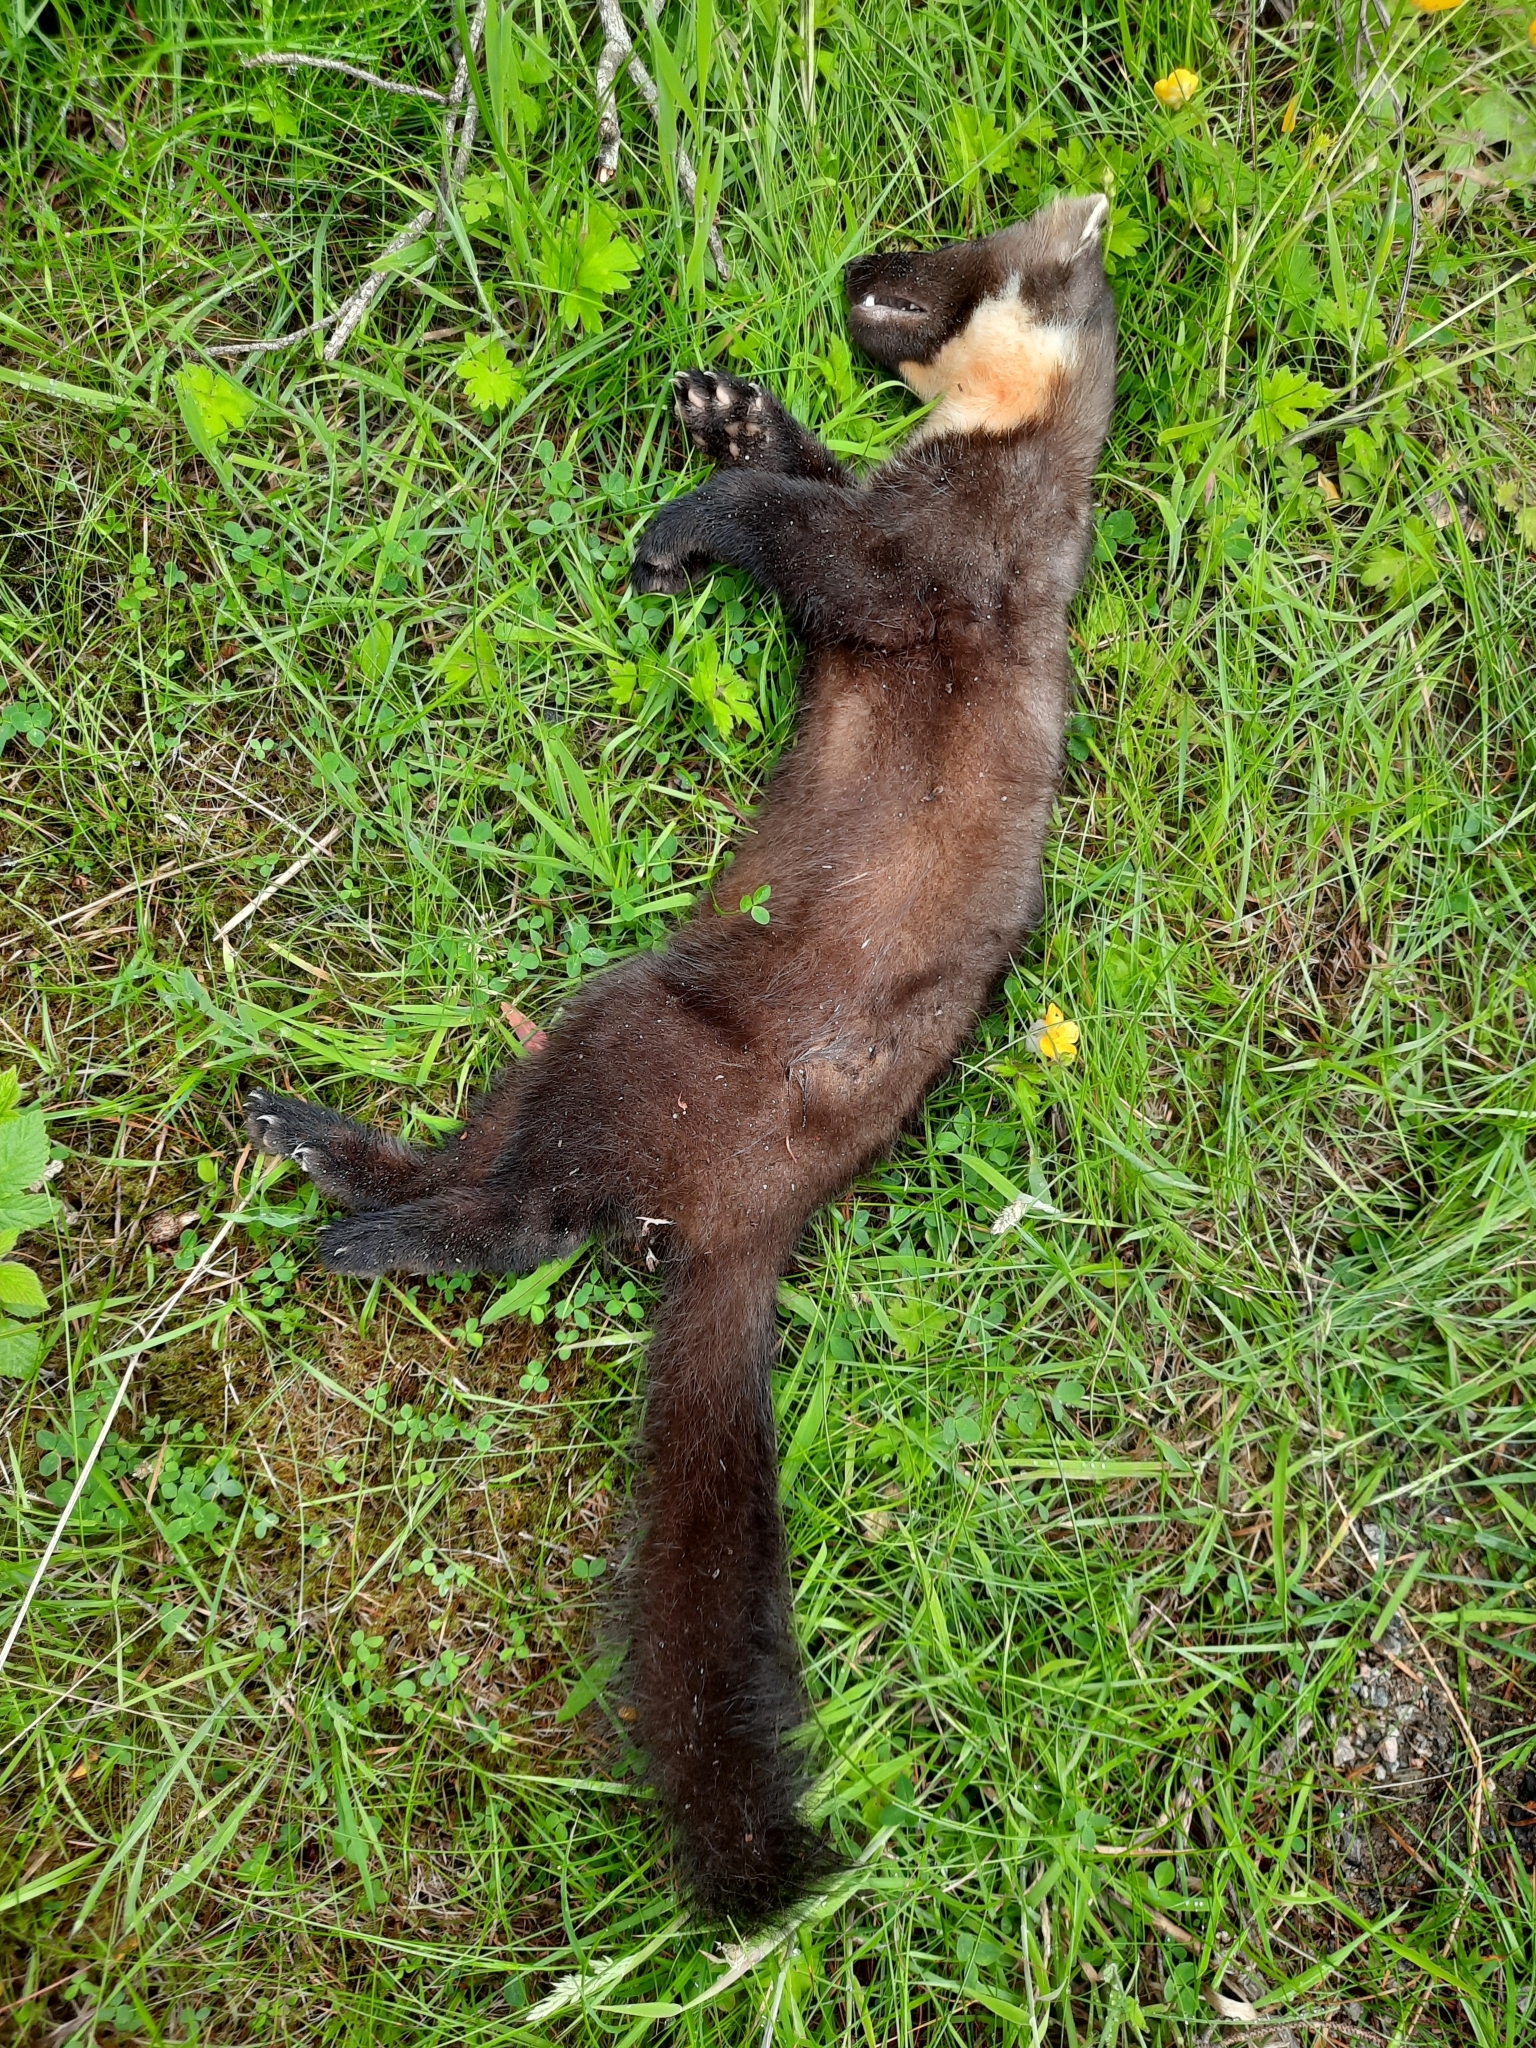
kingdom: Animalia
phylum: Chordata
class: Mammalia
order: Carnivora
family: Mustelidae
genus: Martes
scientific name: Martes martes
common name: European pine marten
